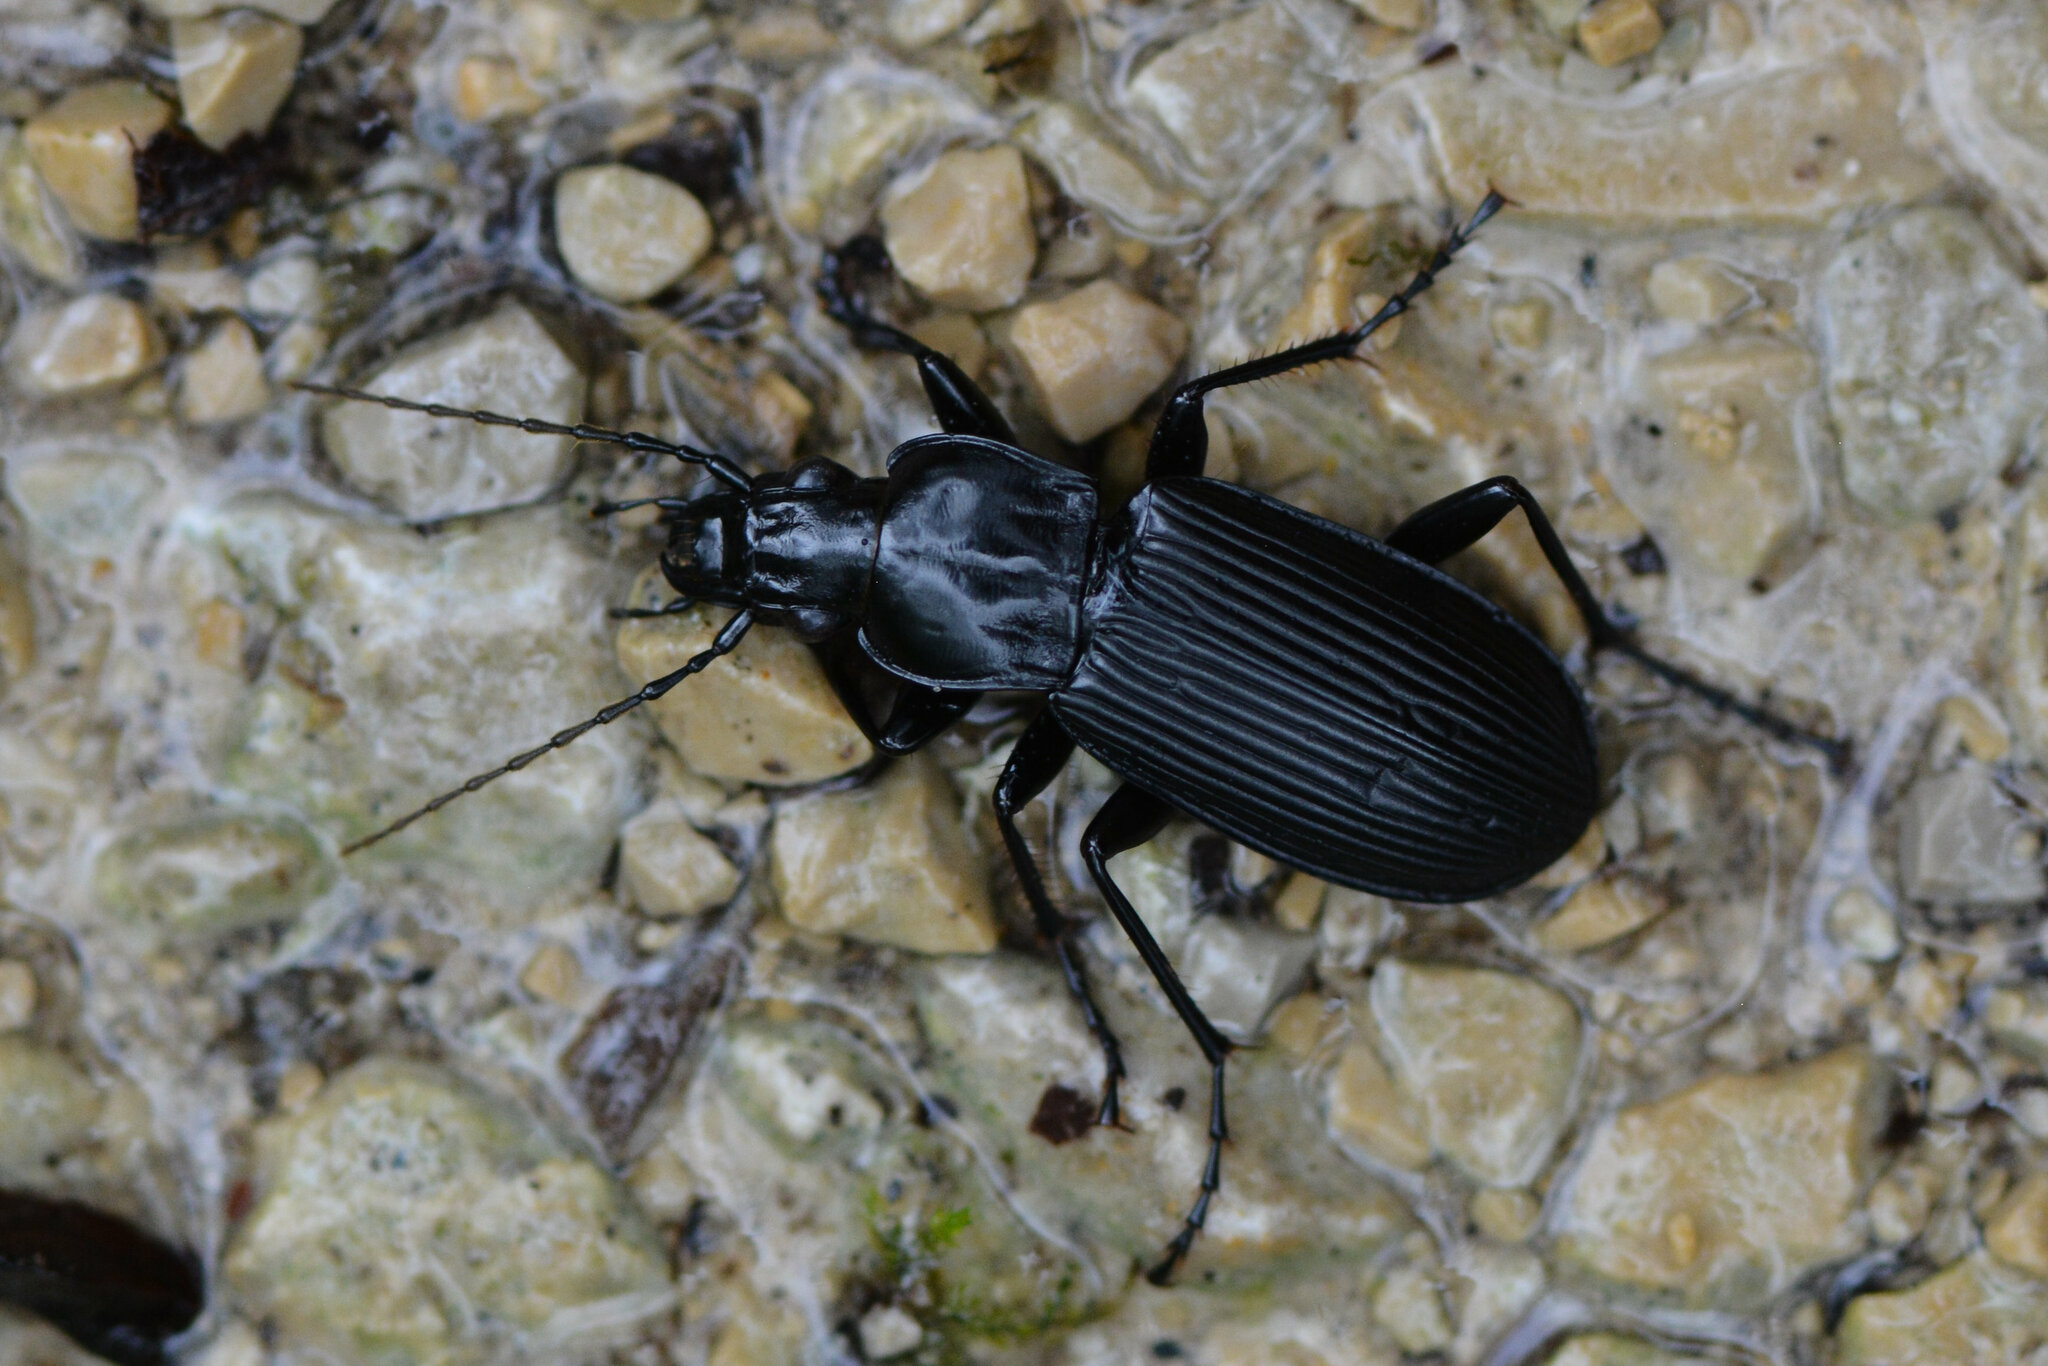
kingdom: Animalia
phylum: Arthropoda
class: Insecta
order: Coleoptera
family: Carabidae
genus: Pterostichus
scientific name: Pterostichus niger
